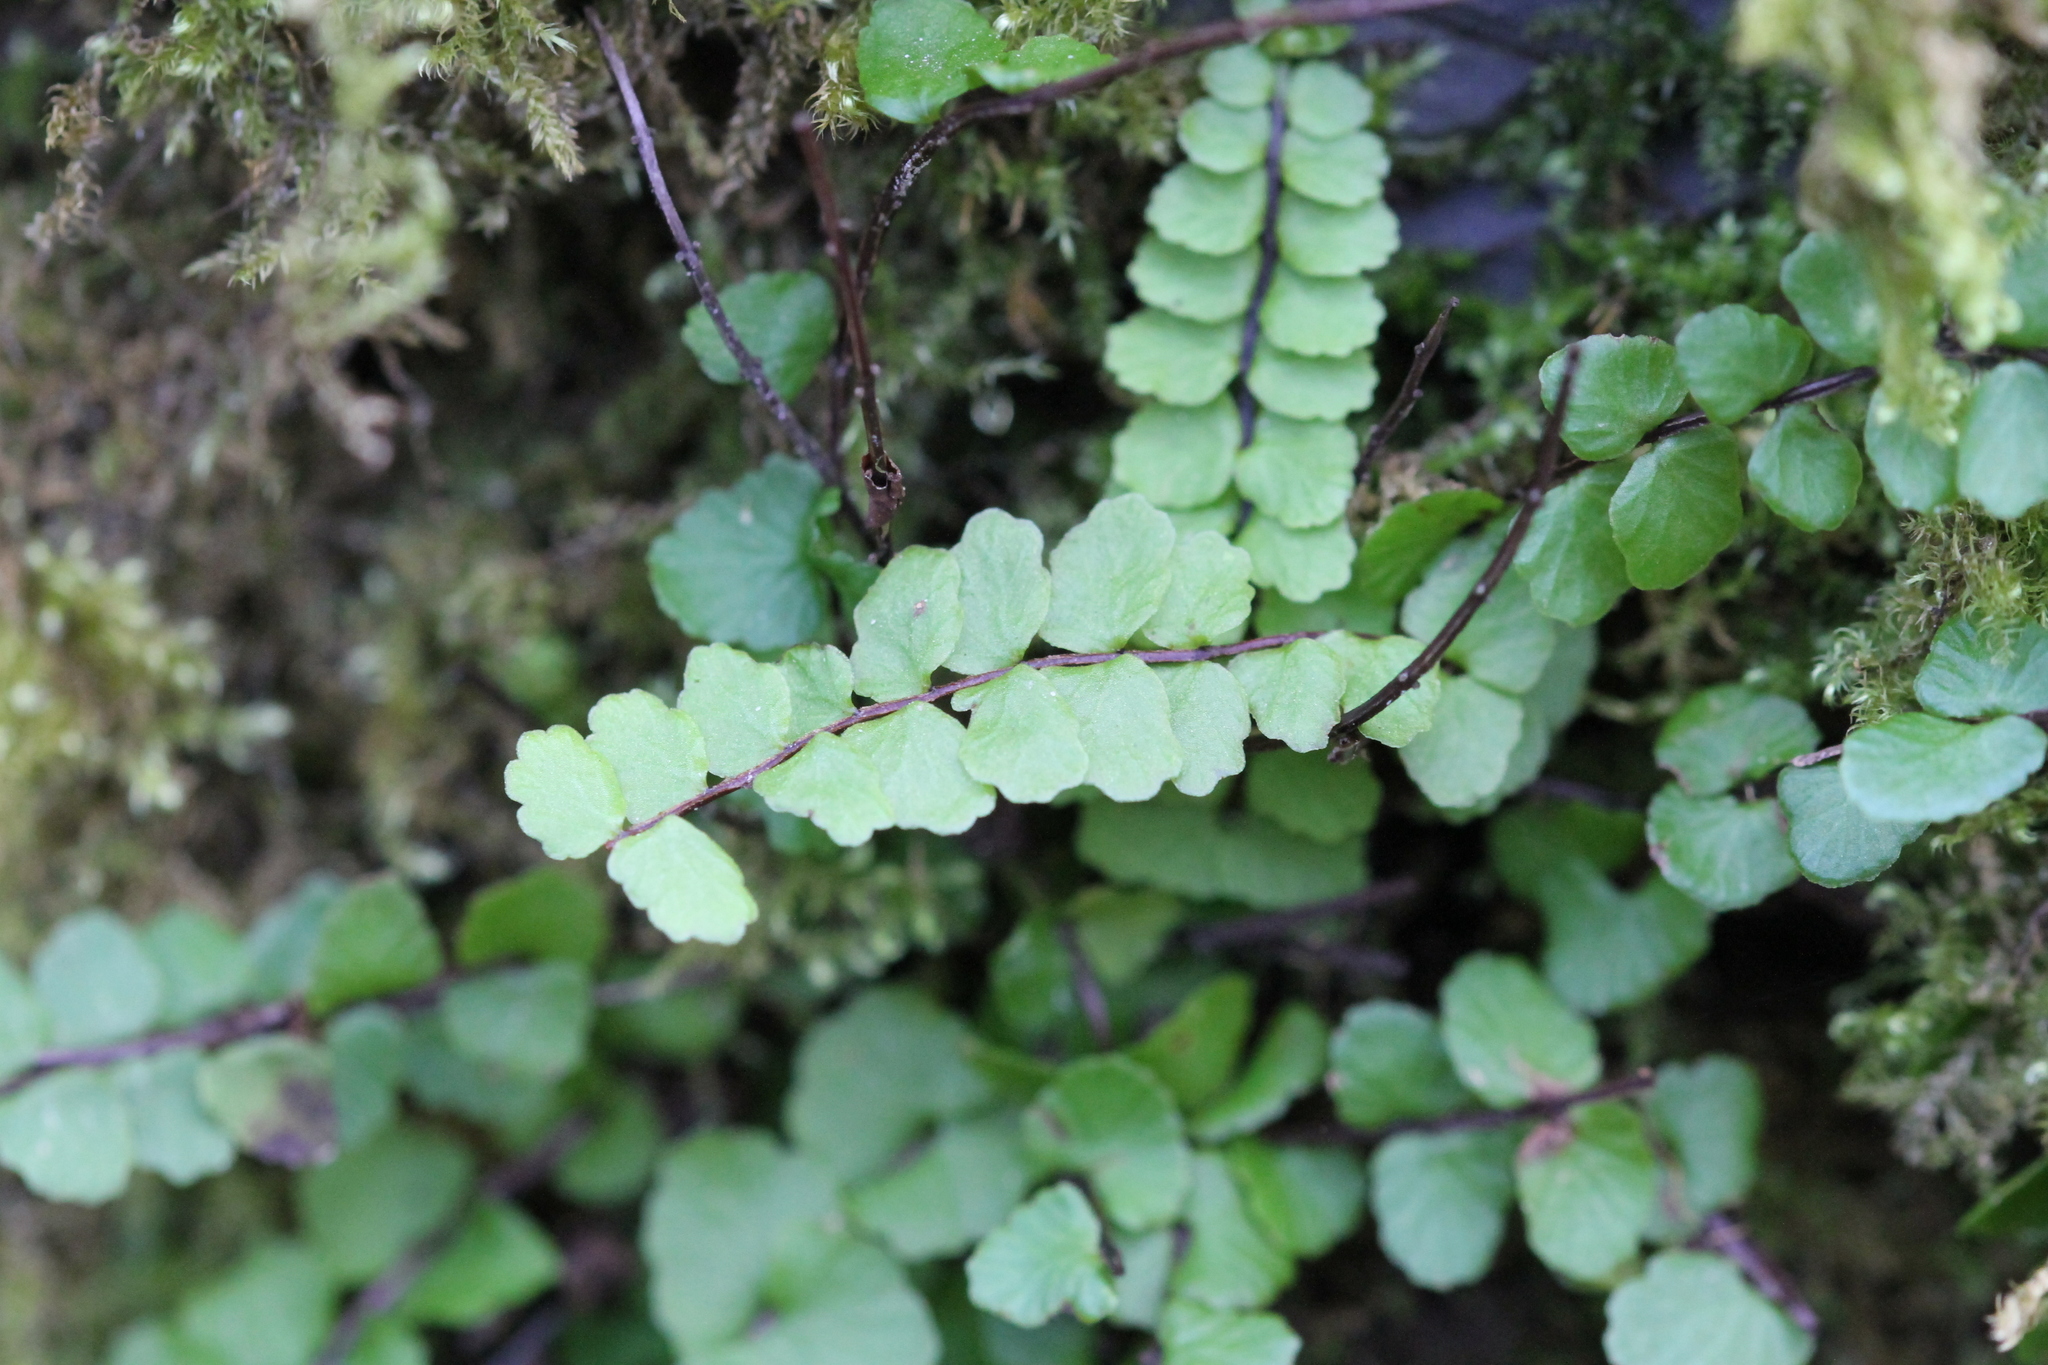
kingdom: Plantae
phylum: Tracheophyta
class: Polypodiopsida
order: Polypodiales
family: Aspleniaceae
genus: Asplenium
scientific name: Asplenium trichomanes
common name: Maidenhair spleenwort
